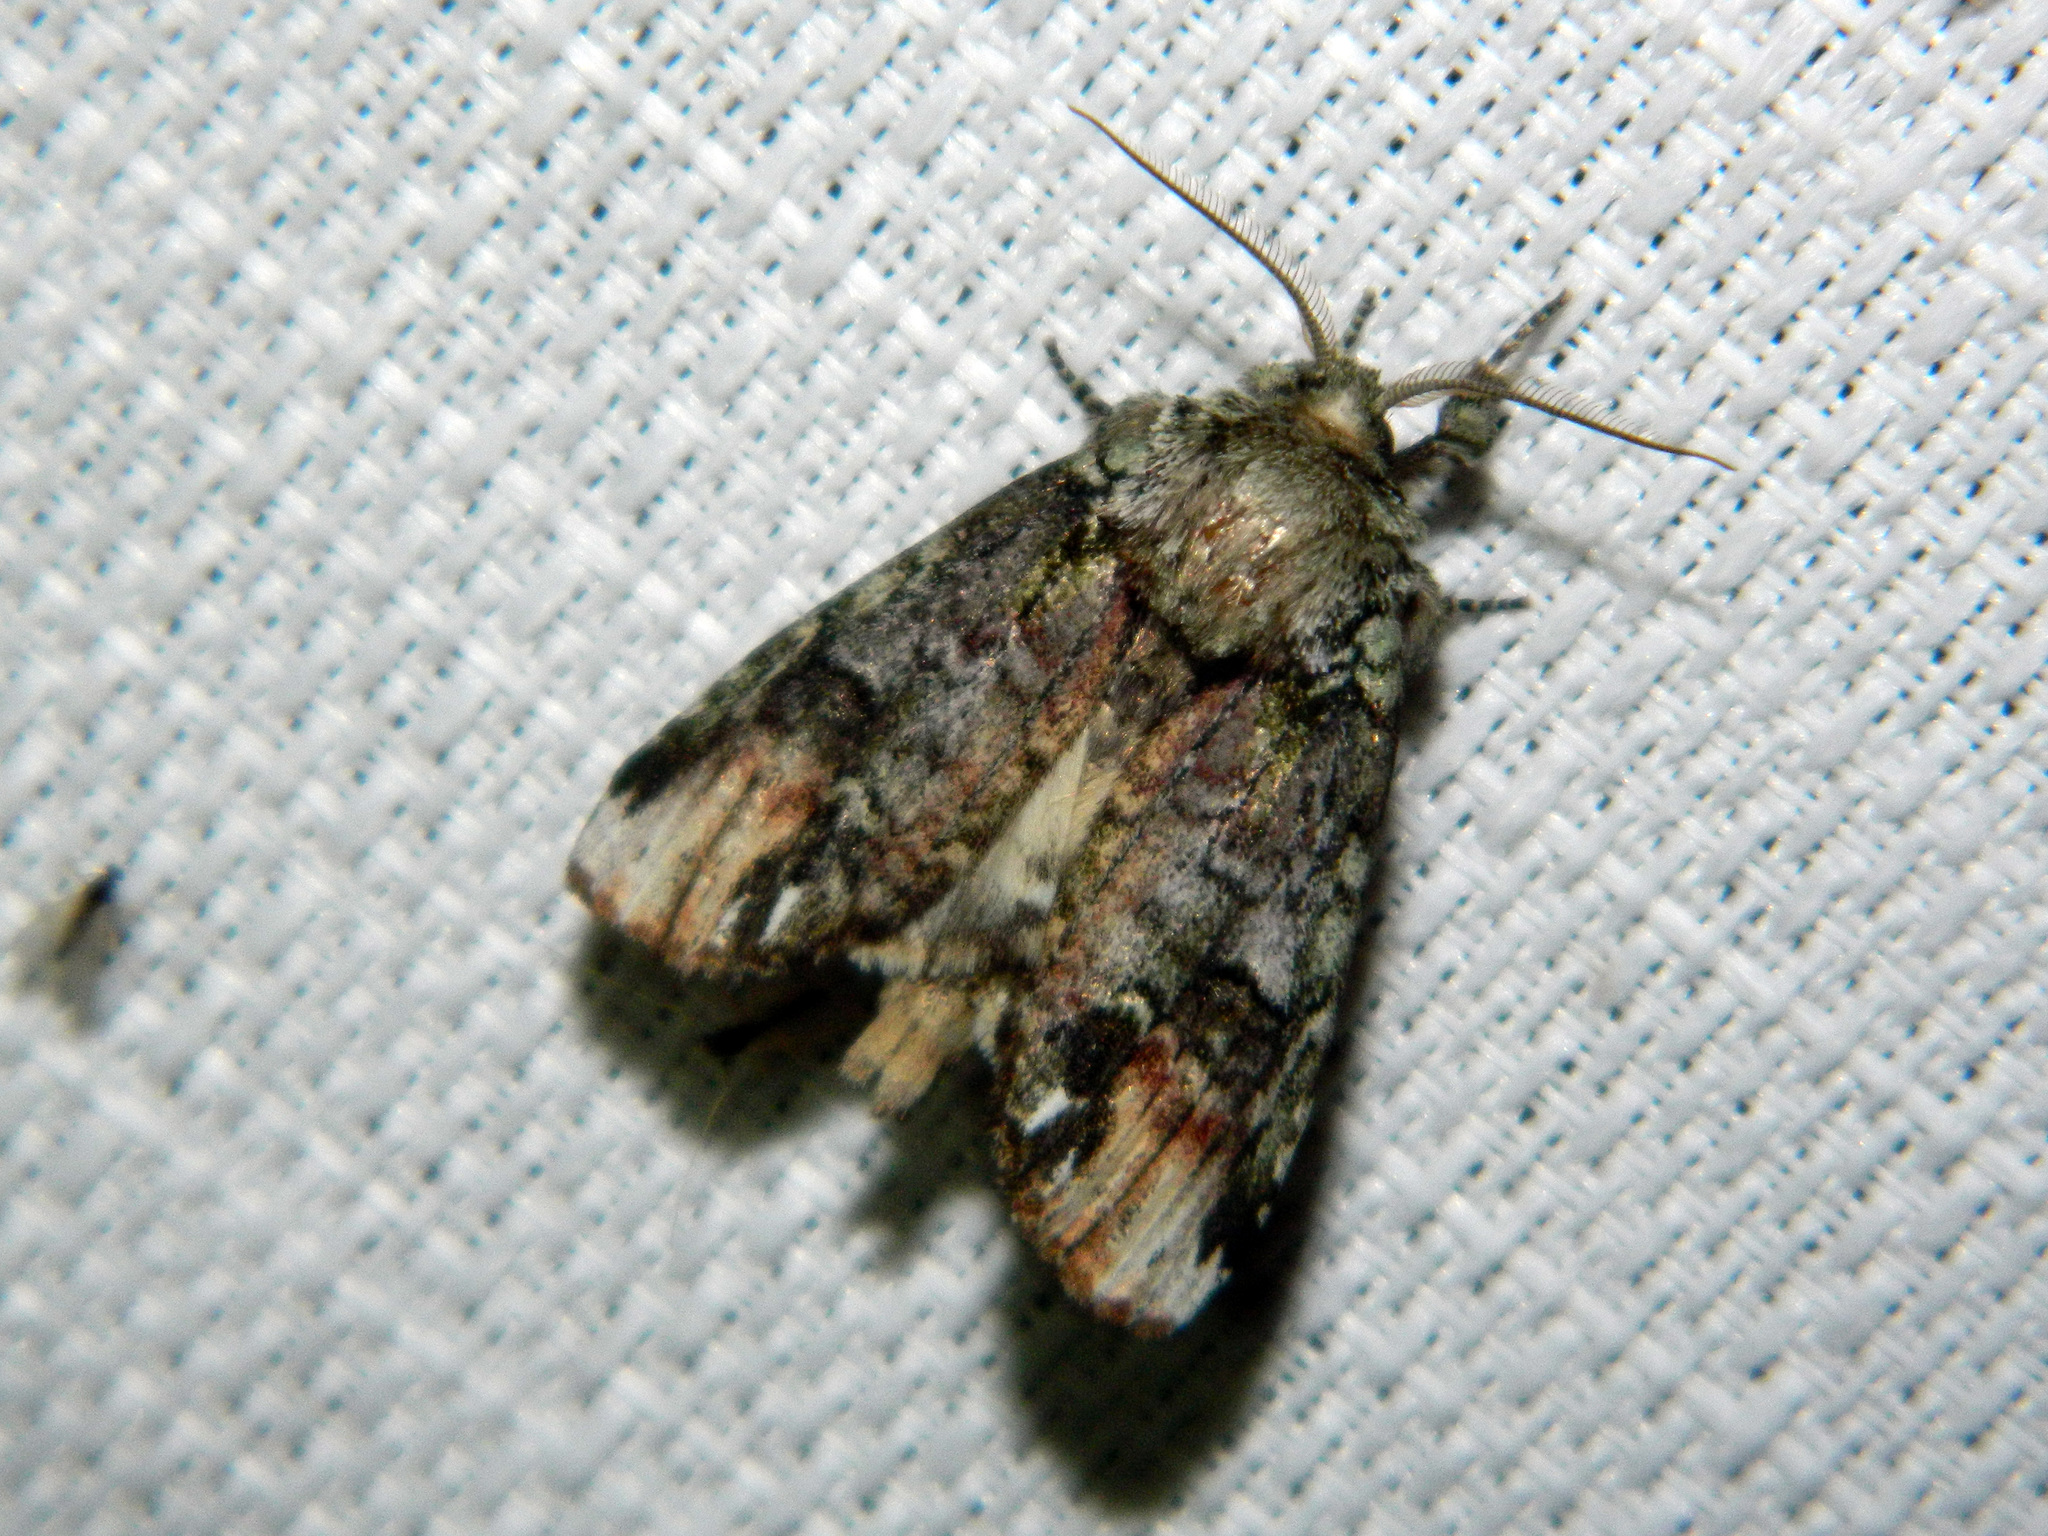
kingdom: Animalia
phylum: Arthropoda
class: Insecta
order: Lepidoptera
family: Notodontidae
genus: Schizura
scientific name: Schizura
